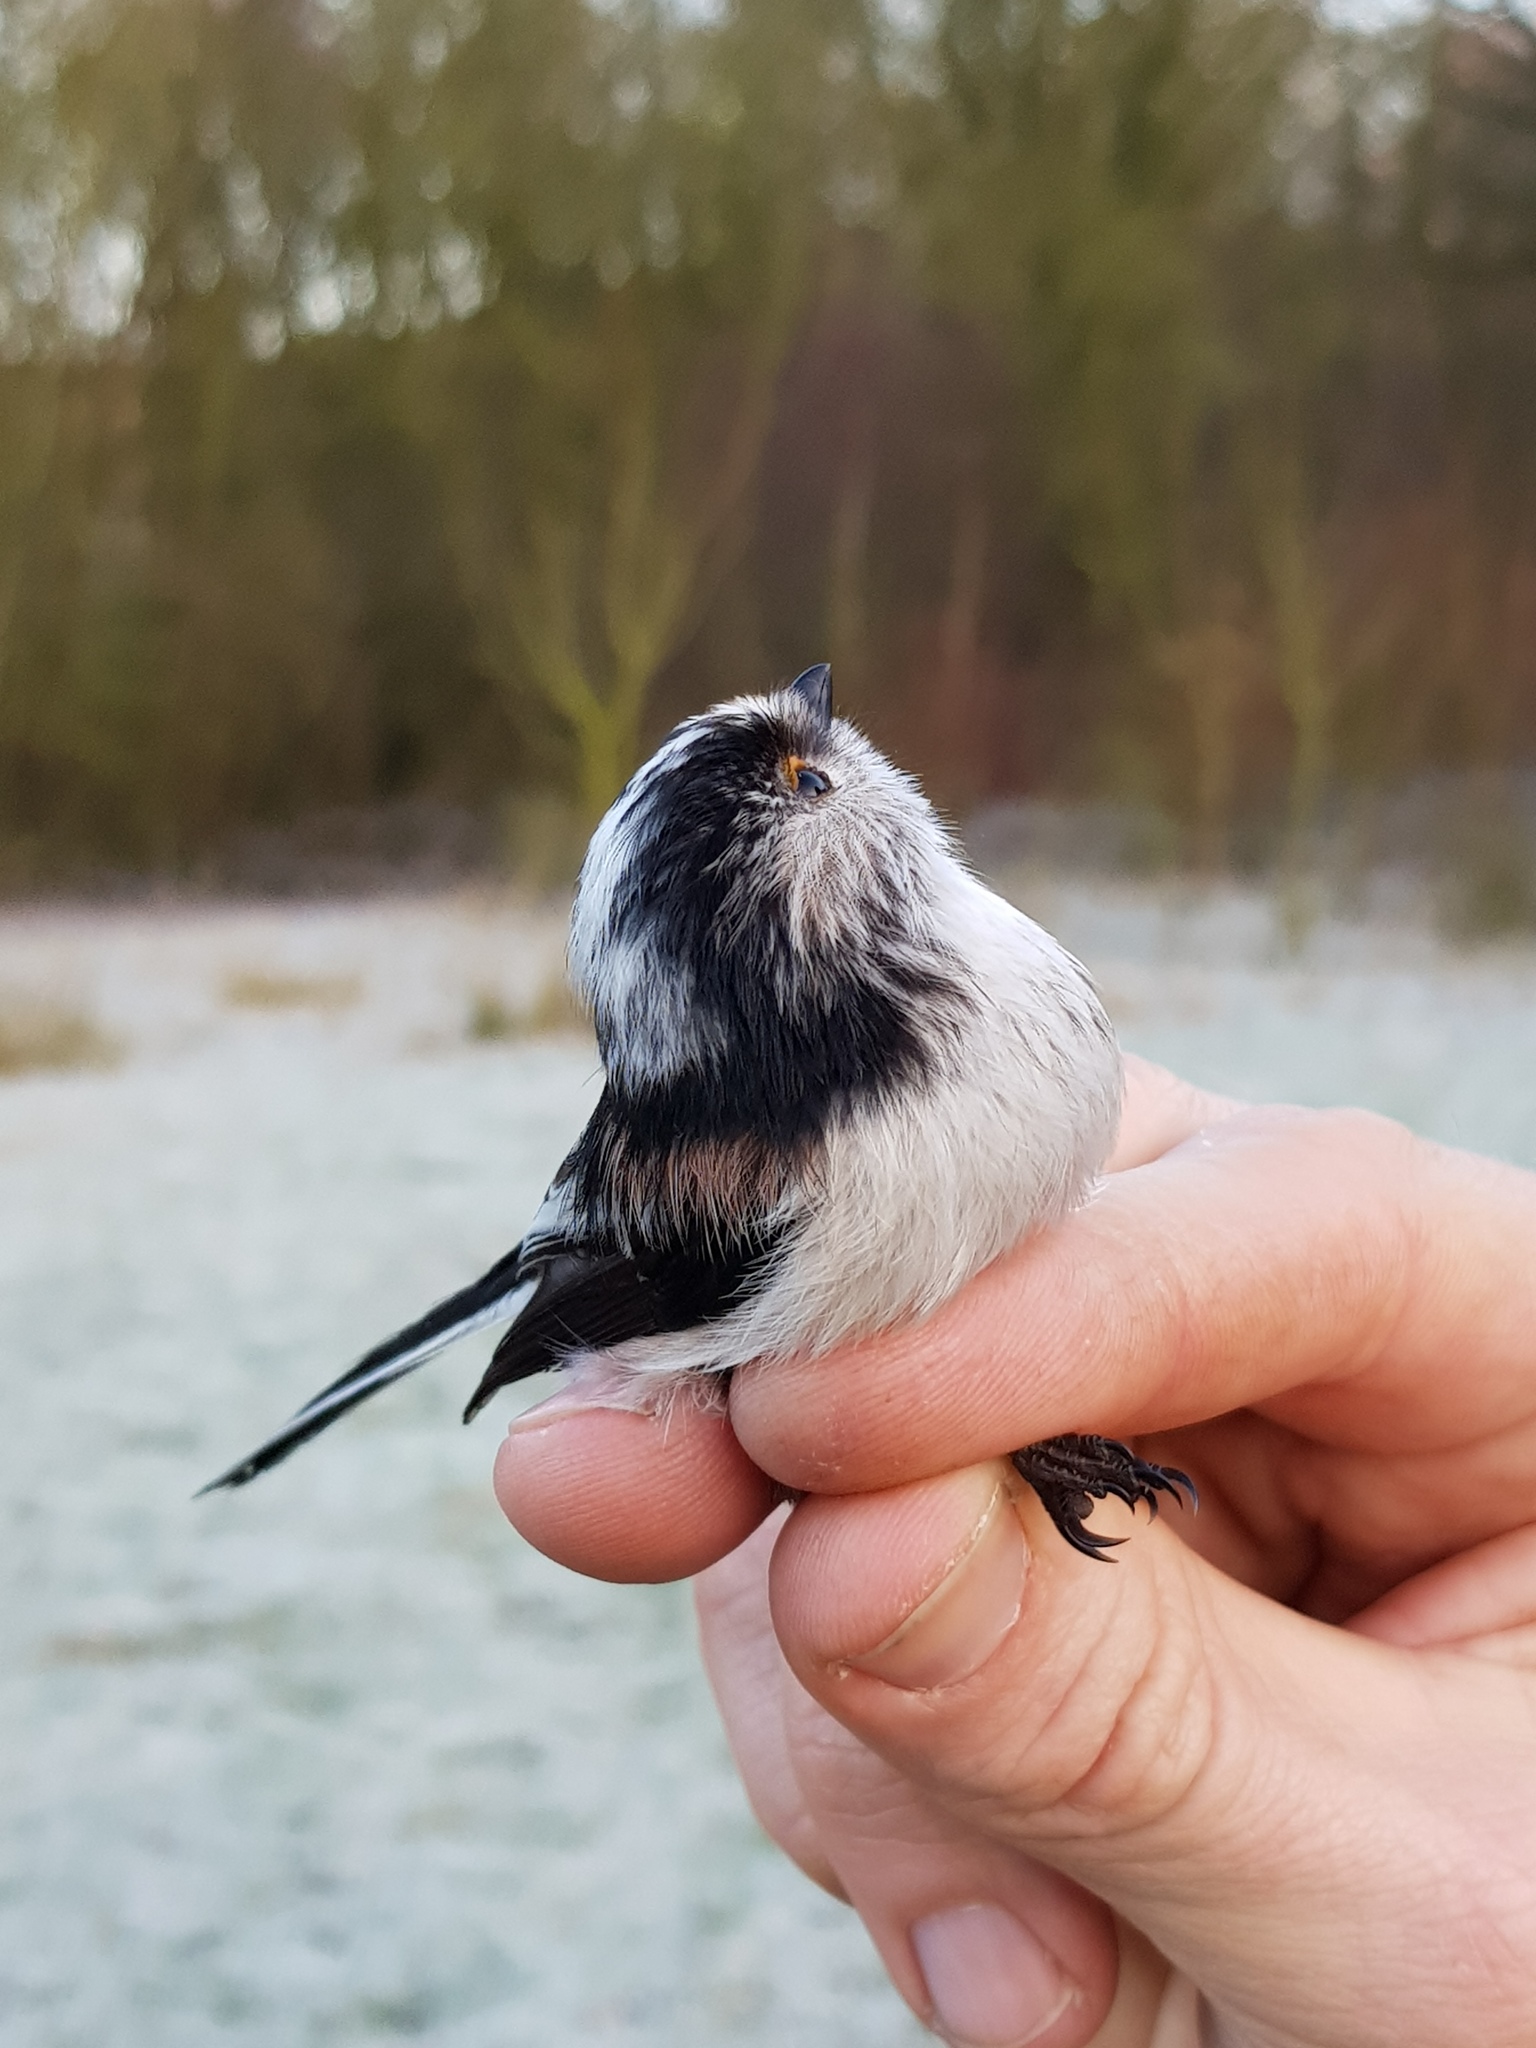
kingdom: Animalia
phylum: Chordata
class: Aves
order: Passeriformes
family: Aegithalidae
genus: Aegithalos
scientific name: Aegithalos caudatus
